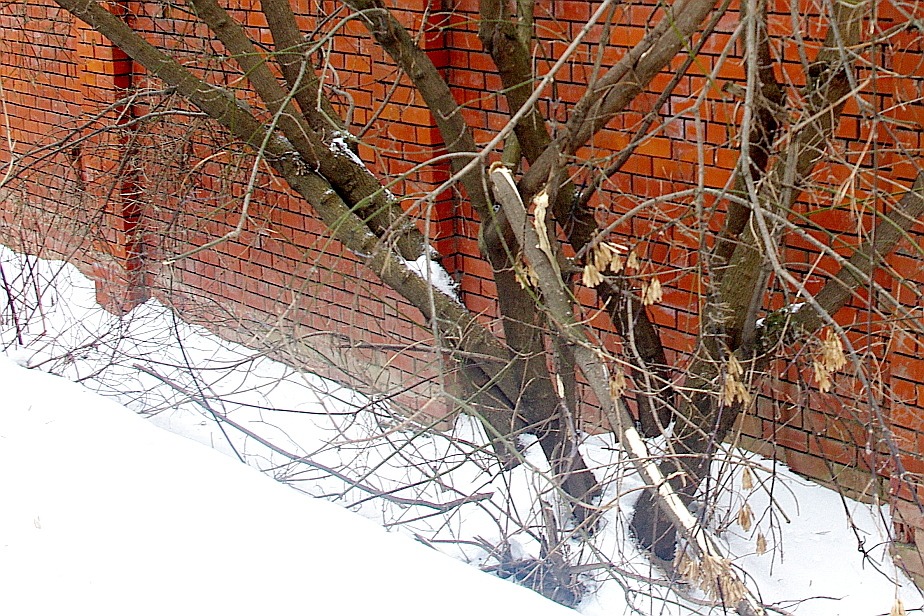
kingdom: Plantae
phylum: Tracheophyta
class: Magnoliopsida
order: Sapindales
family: Sapindaceae
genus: Acer
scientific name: Acer negundo
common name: Ashleaf maple
